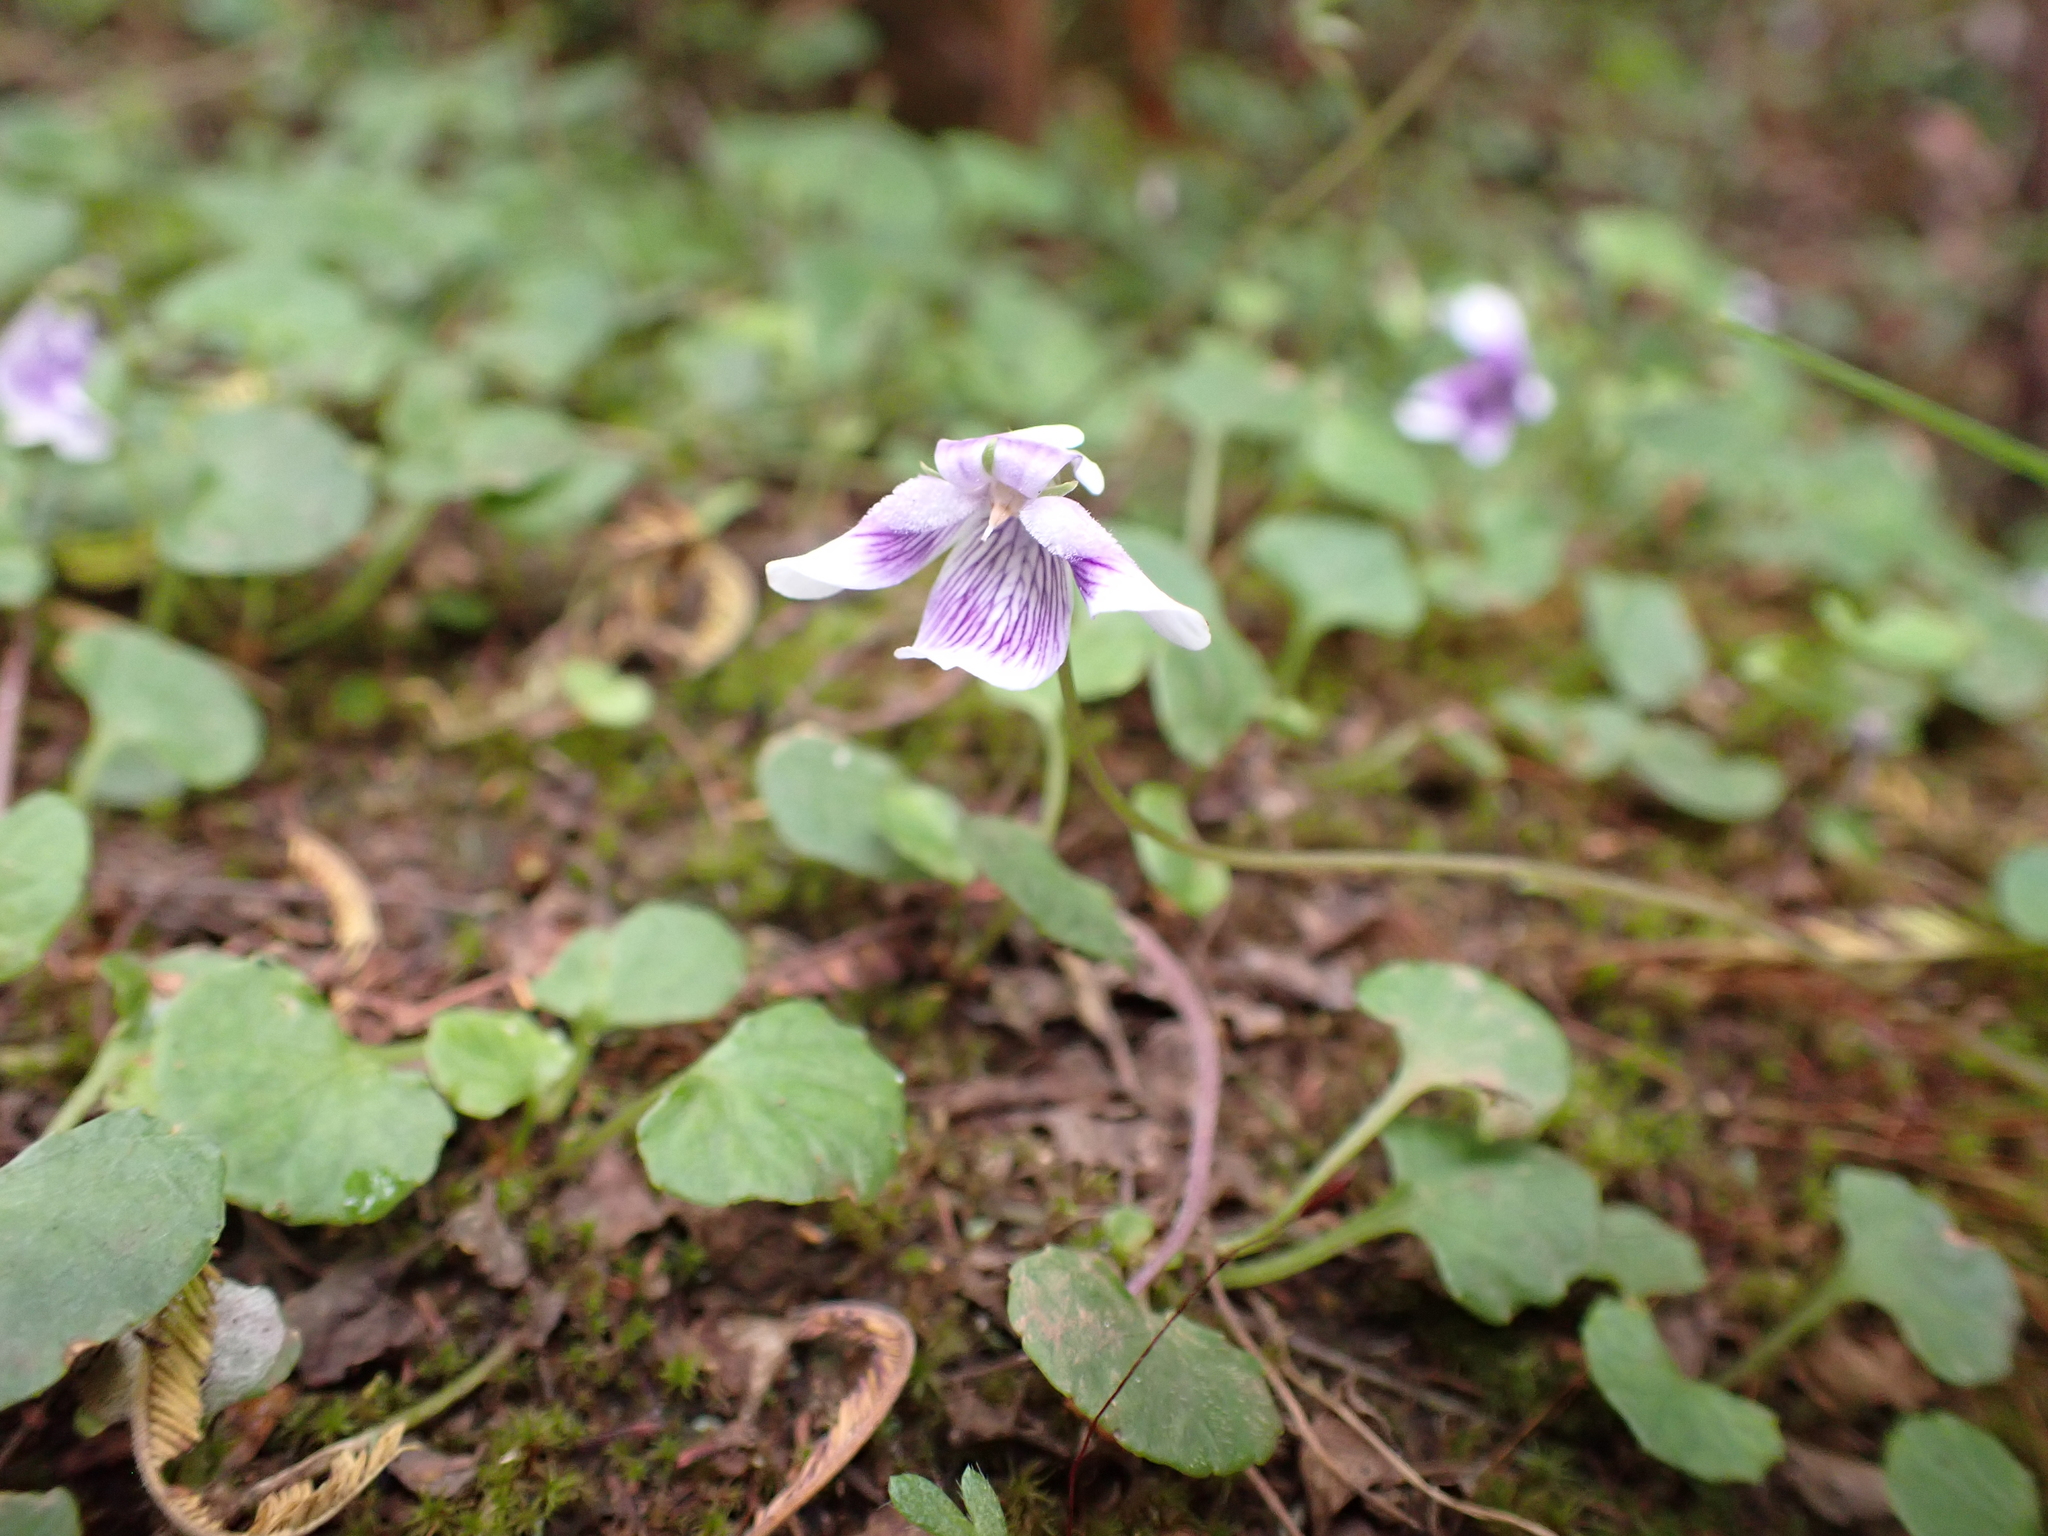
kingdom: Plantae
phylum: Tracheophyta
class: Magnoliopsida
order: Malpighiales
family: Violaceae
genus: Viola
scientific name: Viola hederacea
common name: Australian violet
